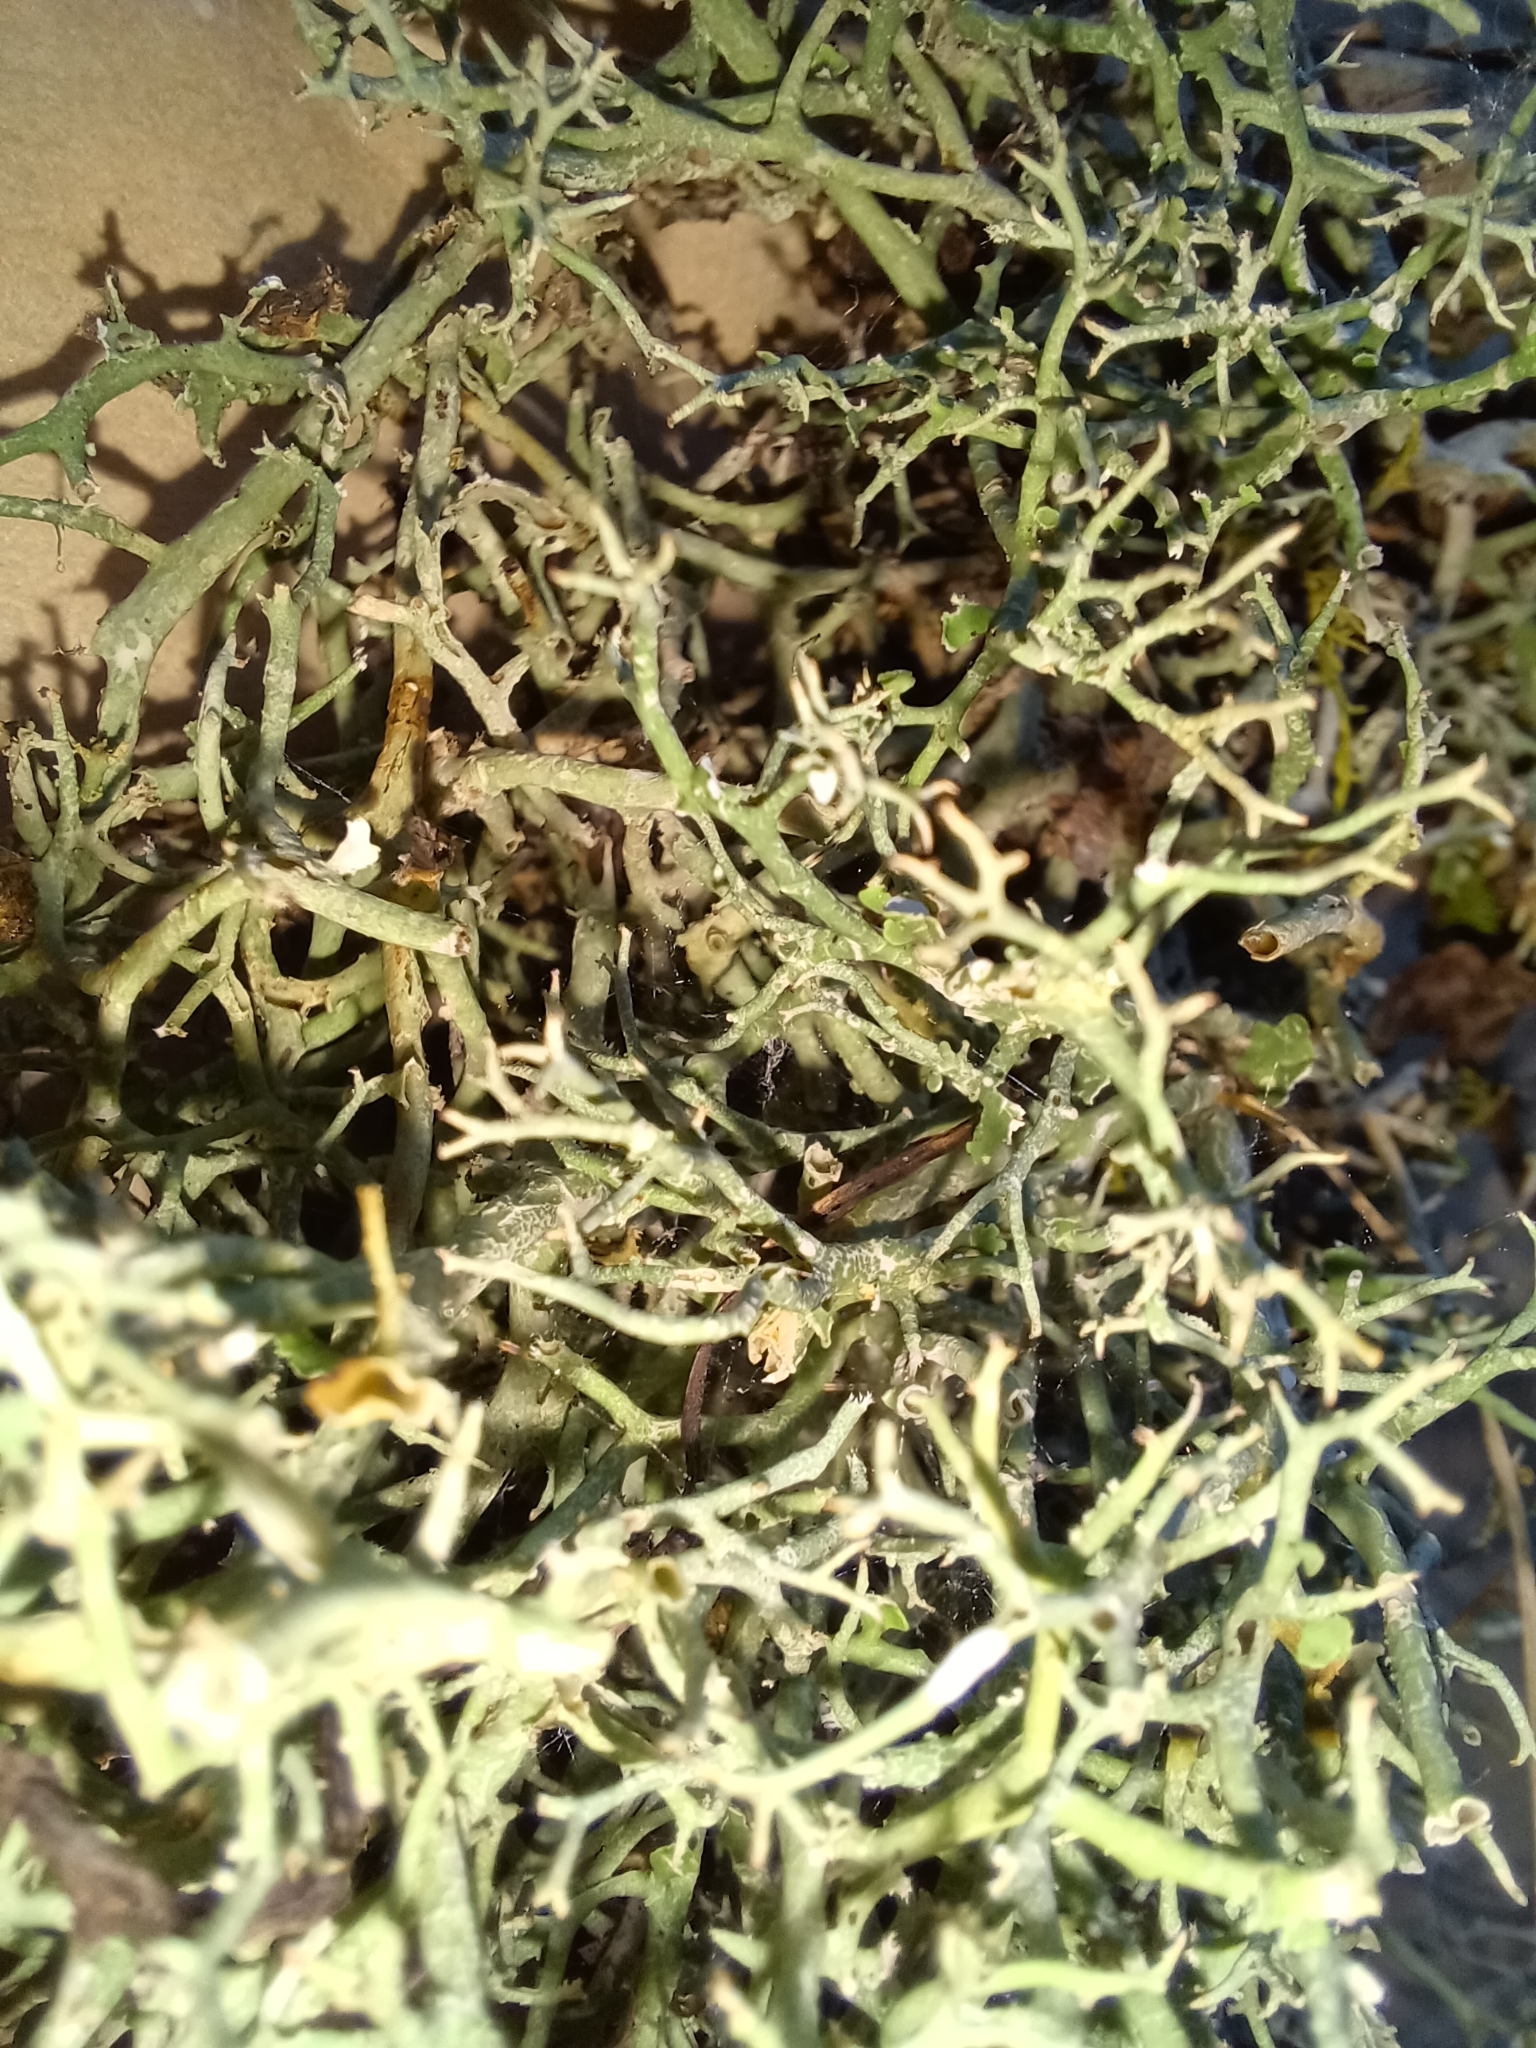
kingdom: Fungi
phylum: Ascomycota
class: Lecanoromycetes
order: Lecanorales
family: Cladoniaceae
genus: Cladonia
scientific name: Cladonia furcata
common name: Many-forked cladonia
